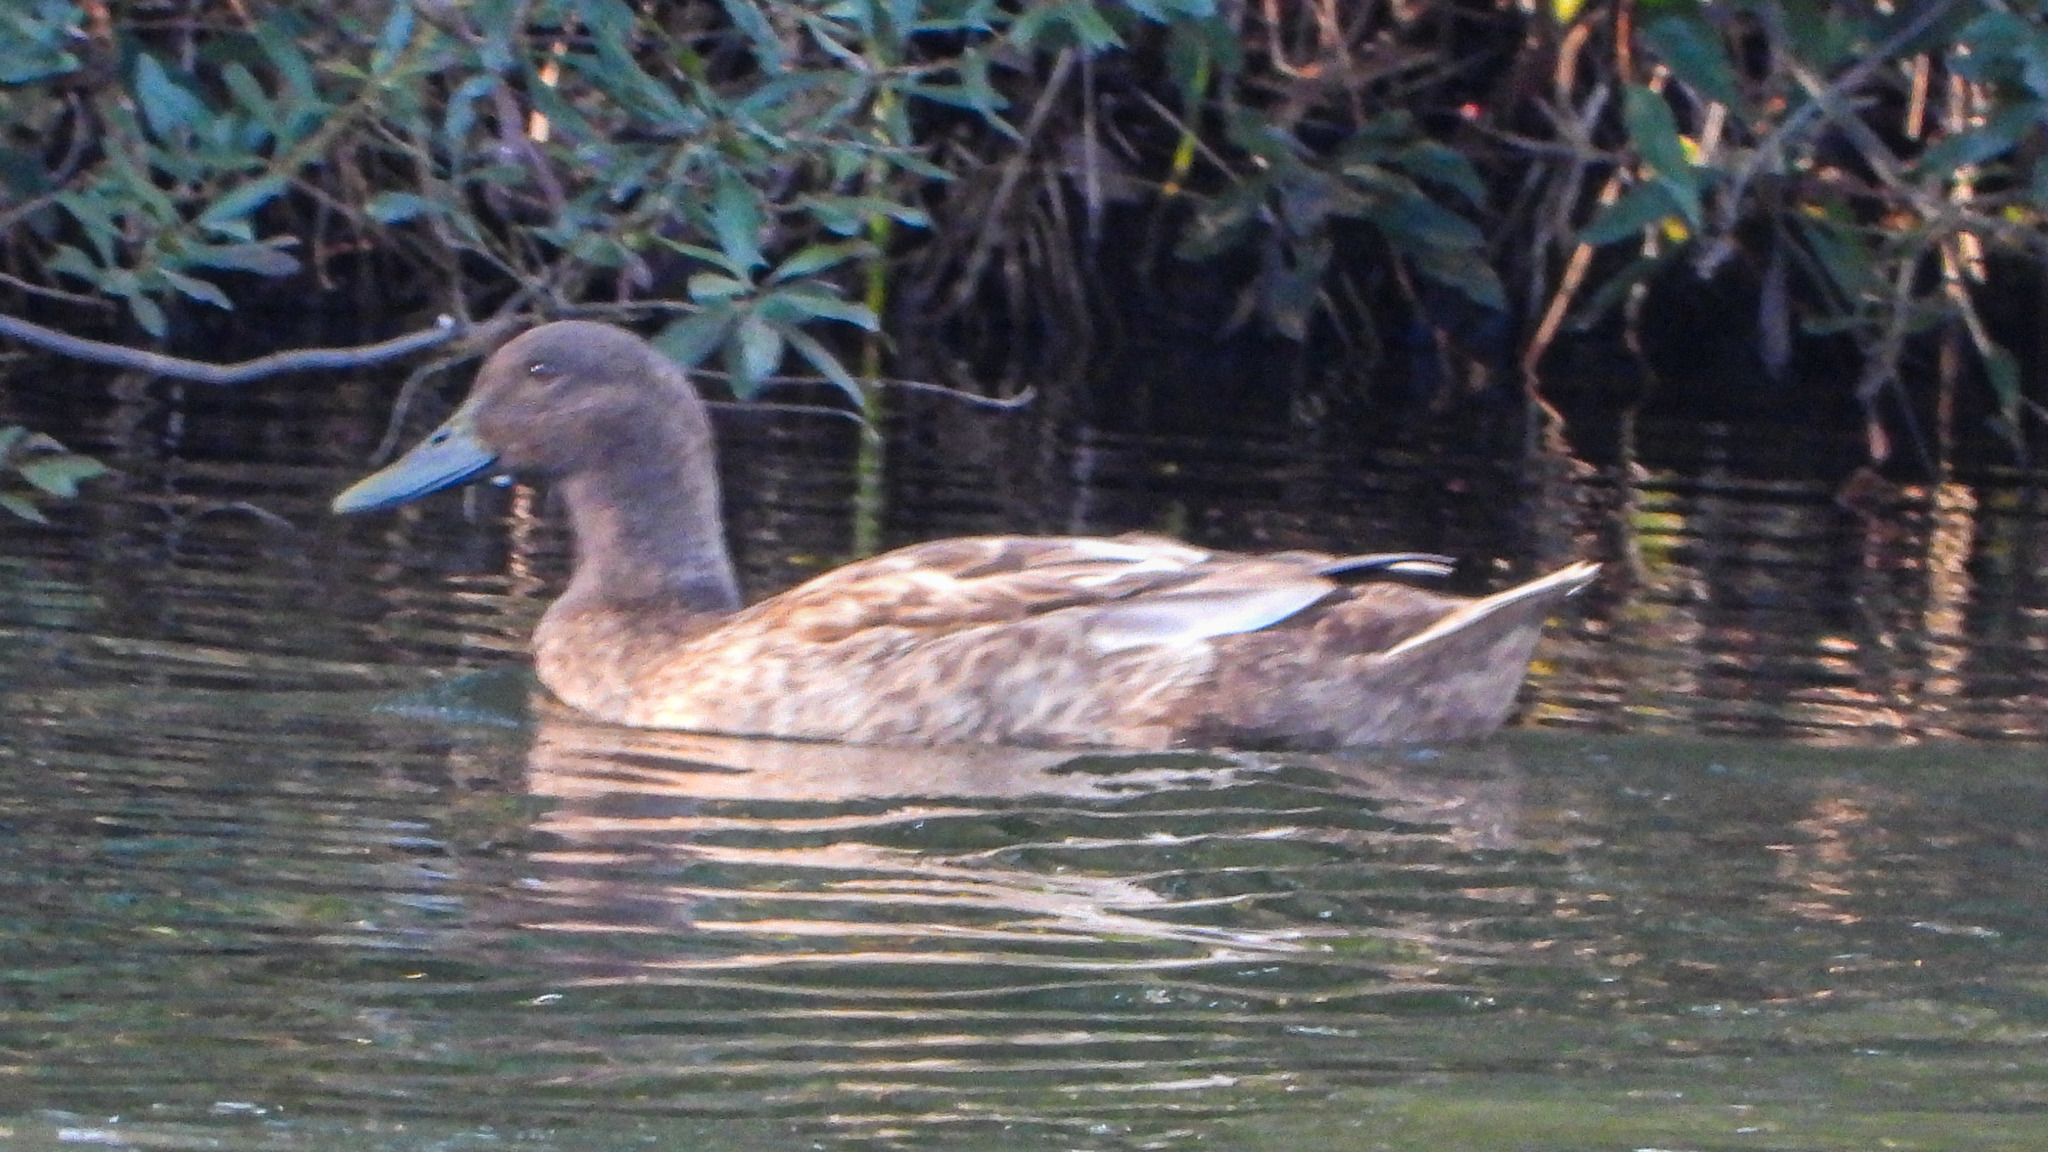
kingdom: Animalia
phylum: Chordata
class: Aves
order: Anseriformes
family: Anatidae
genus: Anas
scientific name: Anas platyrhynchos
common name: Mallard
